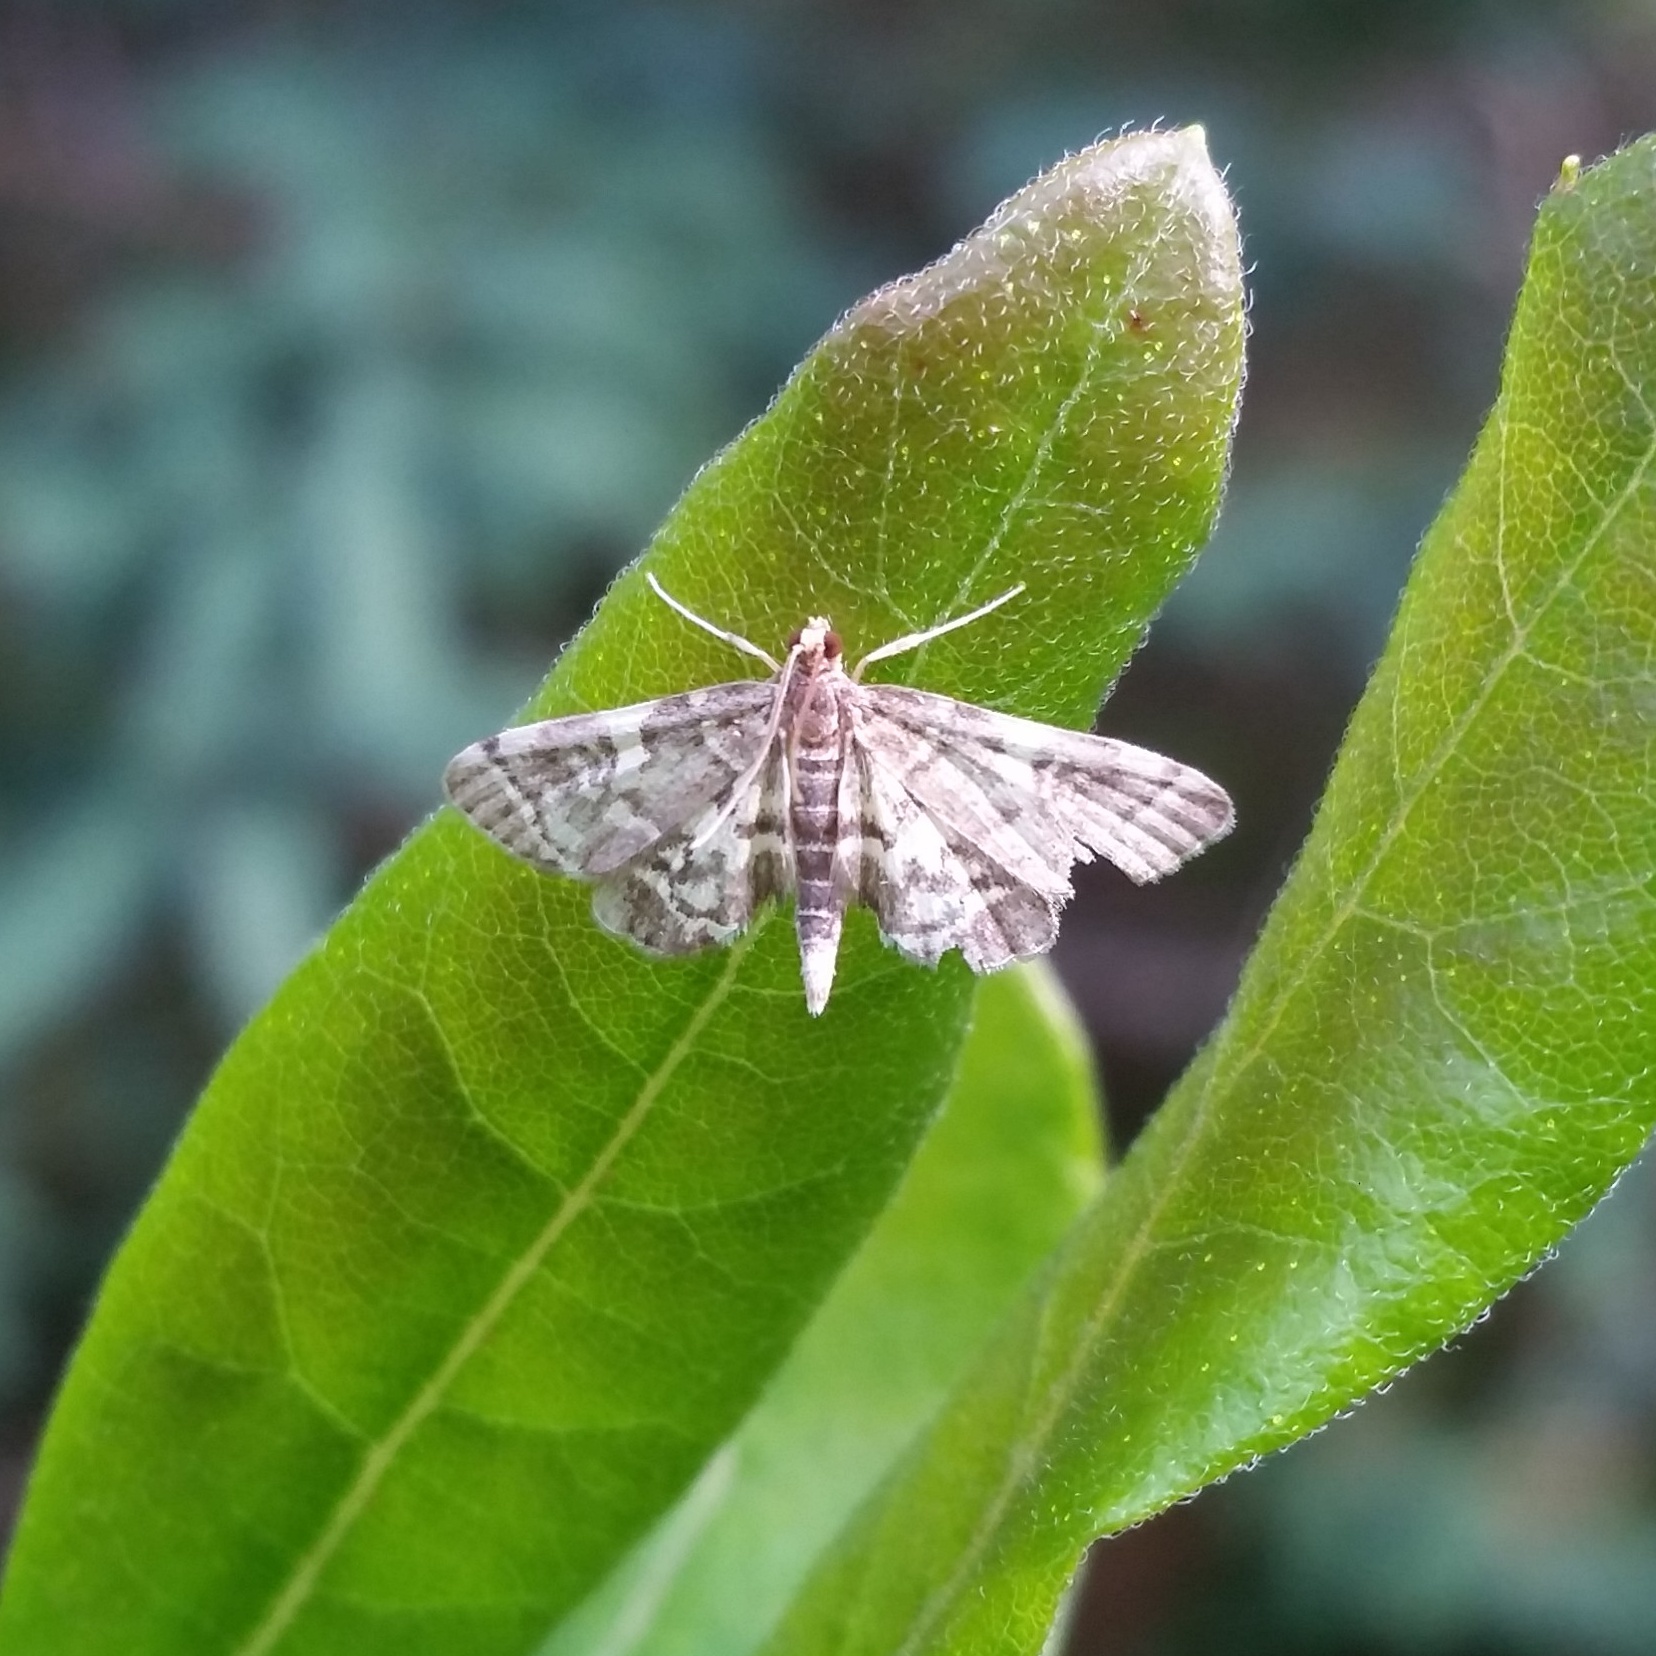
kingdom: Animalia
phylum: Arthropoda
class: Insecta
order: Lepidoptera
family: Crambidae
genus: Anageshna
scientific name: Anageshna primordialis
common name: Yellow-spotted webworm moth
